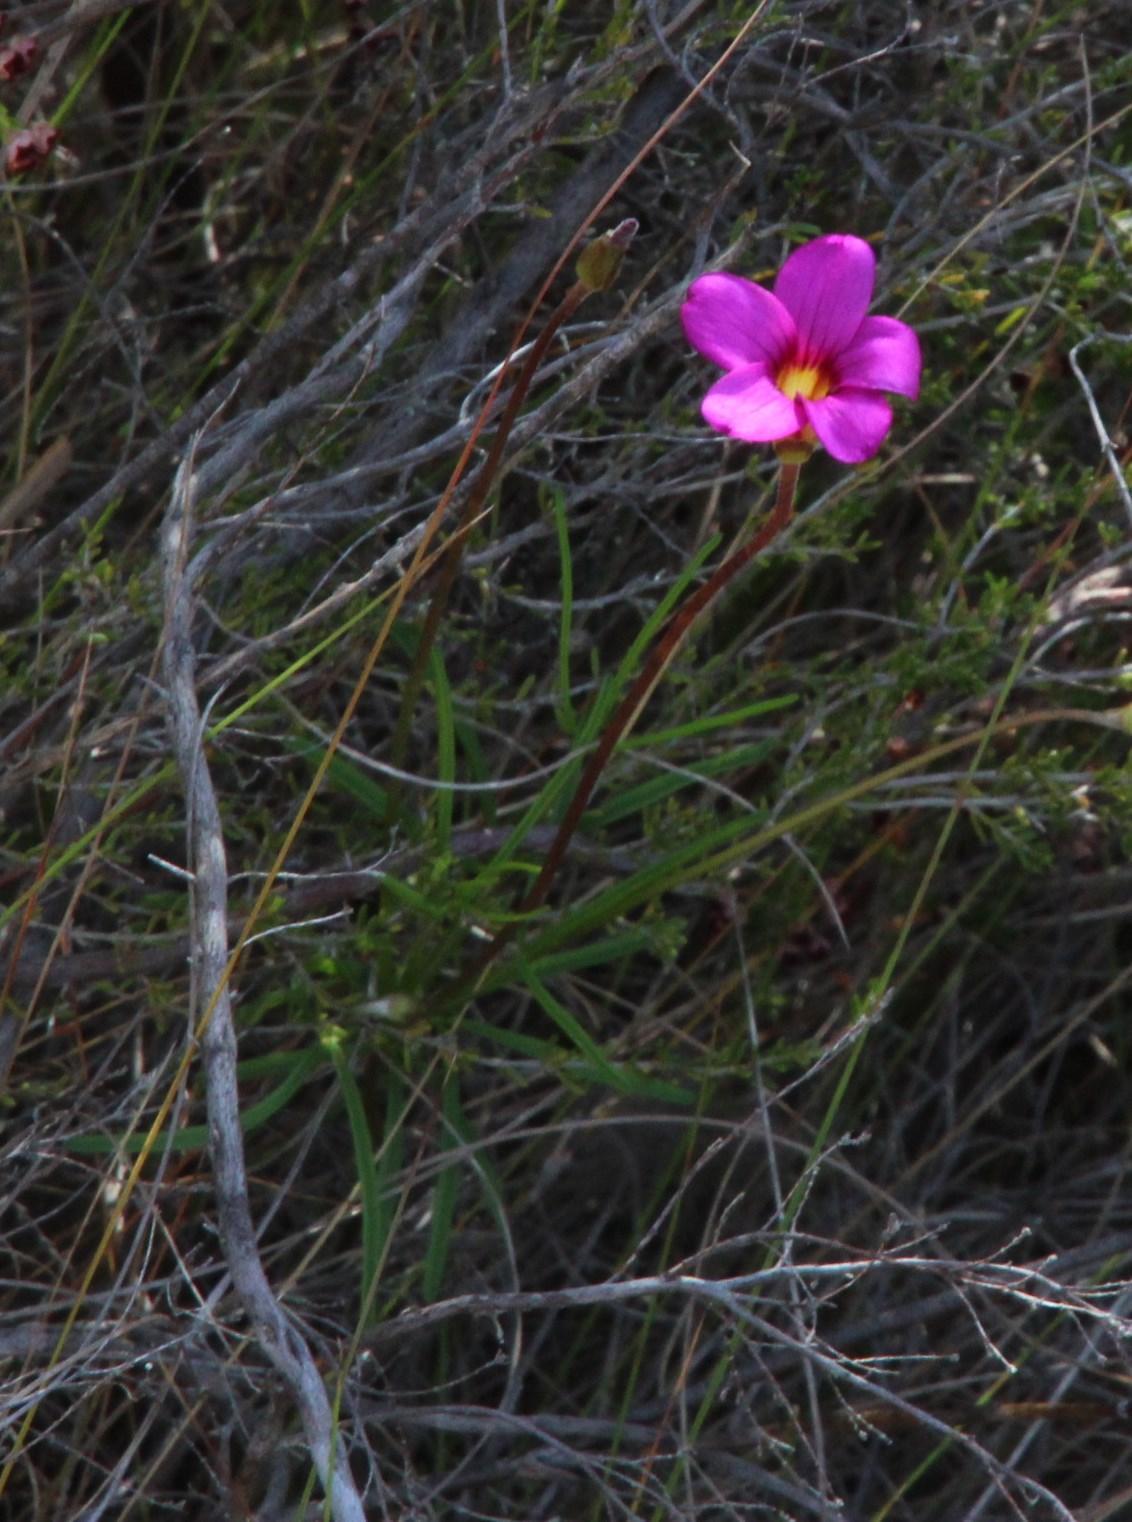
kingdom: Plantae
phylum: Tracheophyta
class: Magnoliopsida
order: Oxalidales
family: Oxalidaceae
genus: Oxalis
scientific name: Oxalis polyphylla
